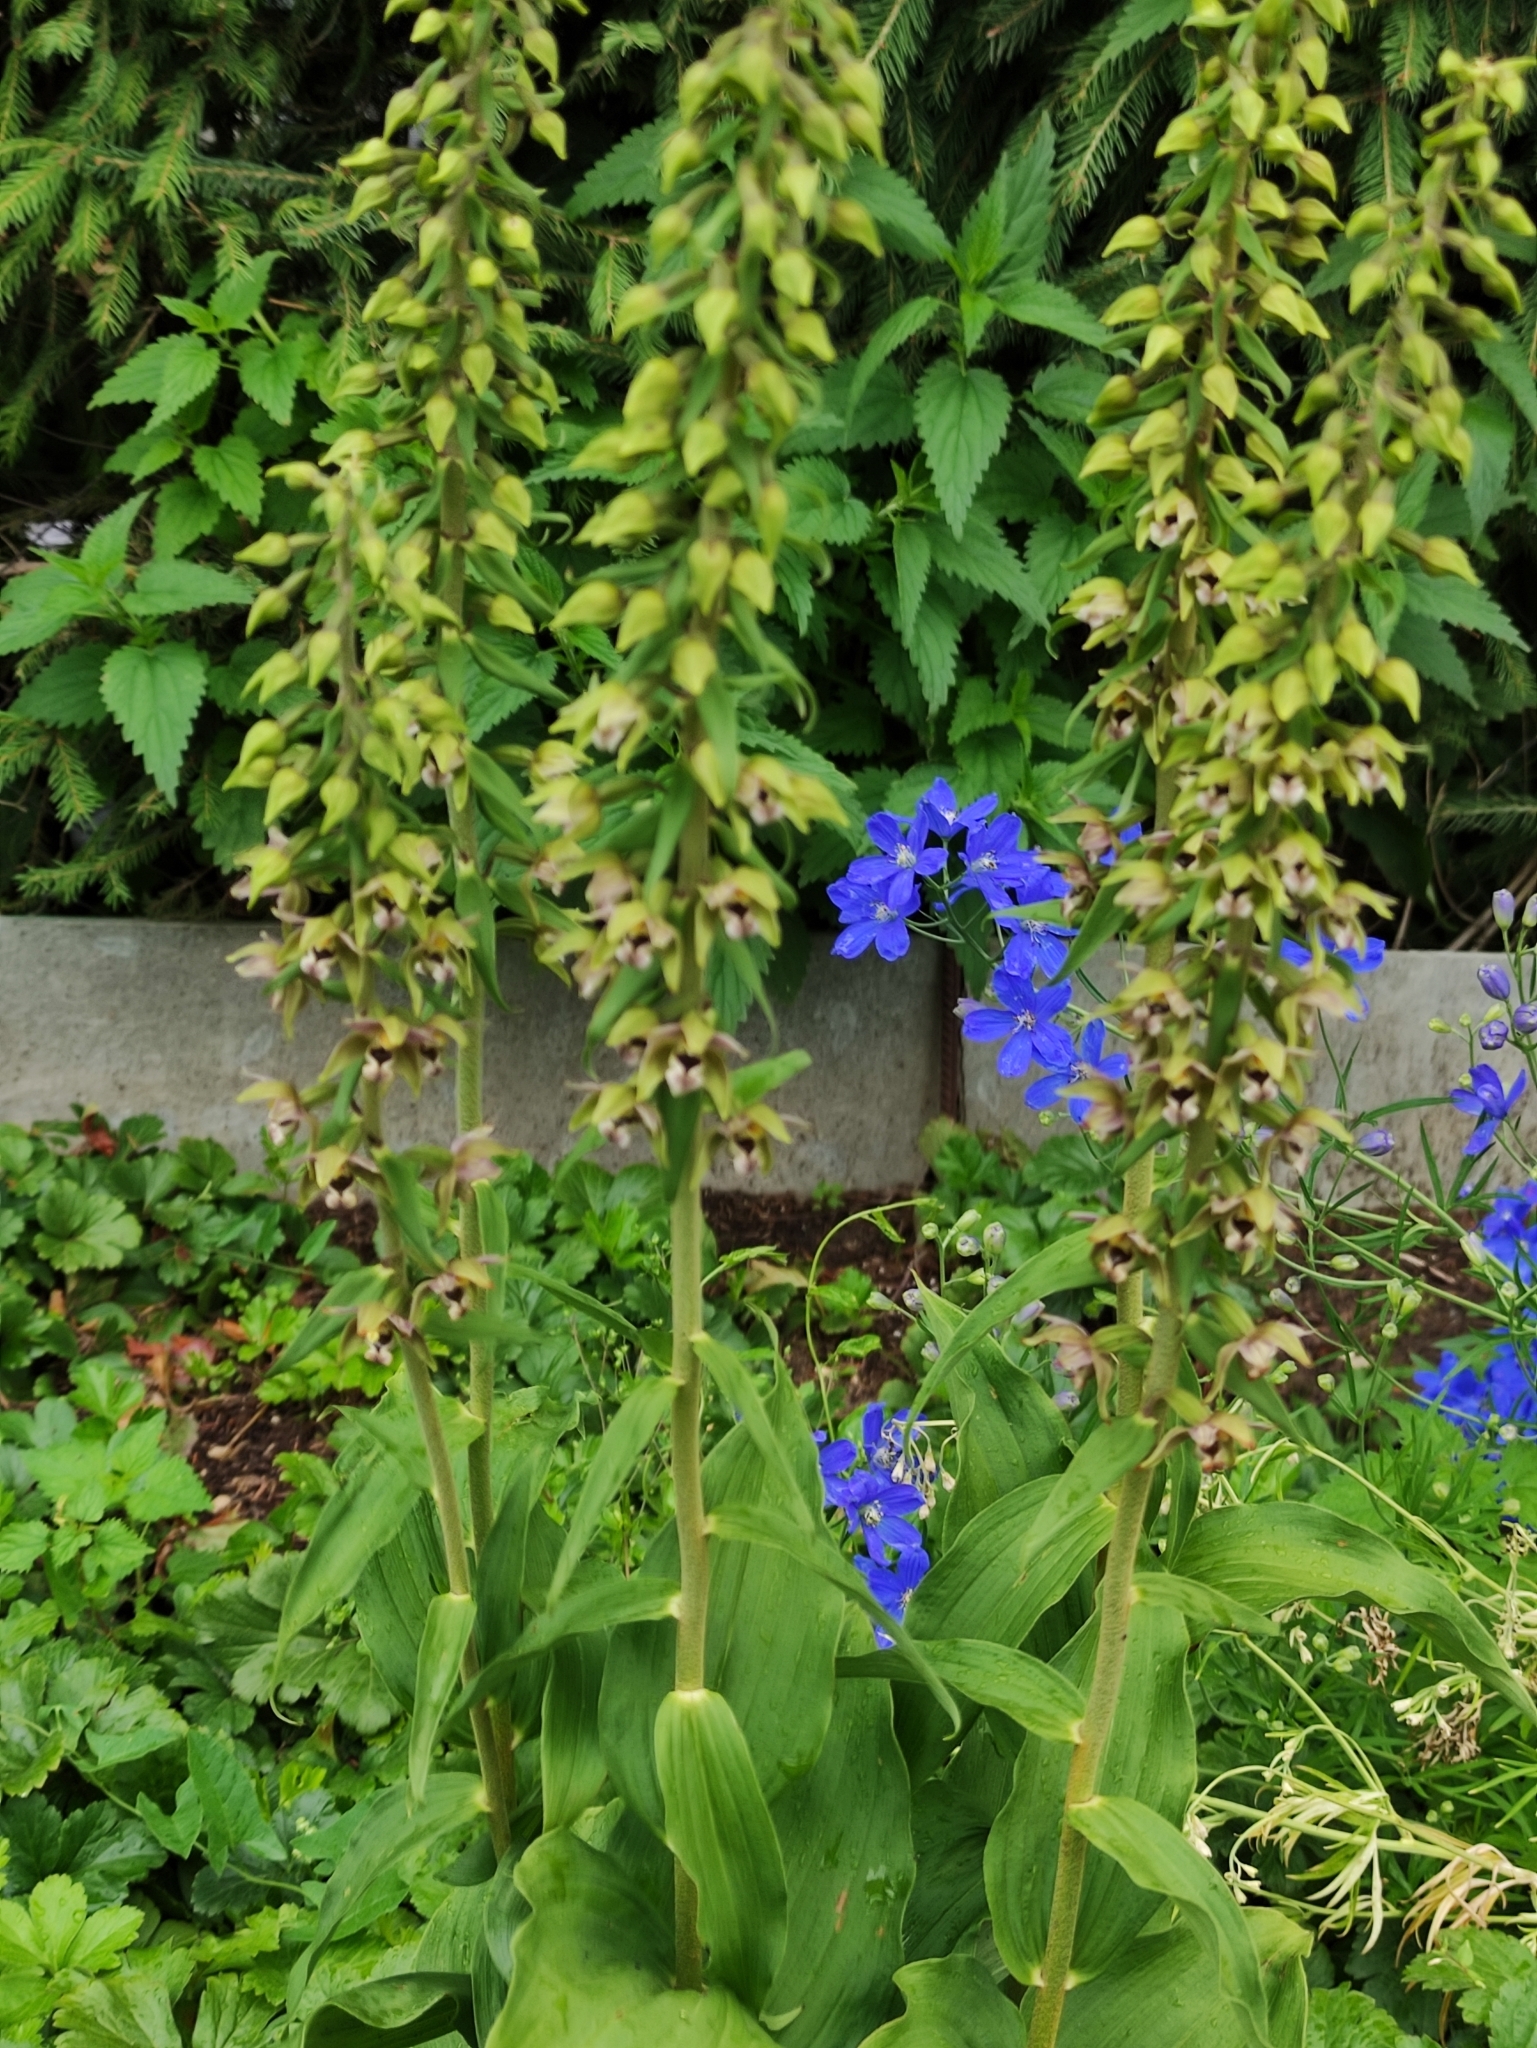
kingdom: Plantae
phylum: Tracheophyta
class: Liliopsida
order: Asparagales
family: Orchidaceae
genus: Epipactis
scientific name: Epipactis helleborine
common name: Broad-leaved helleborine
